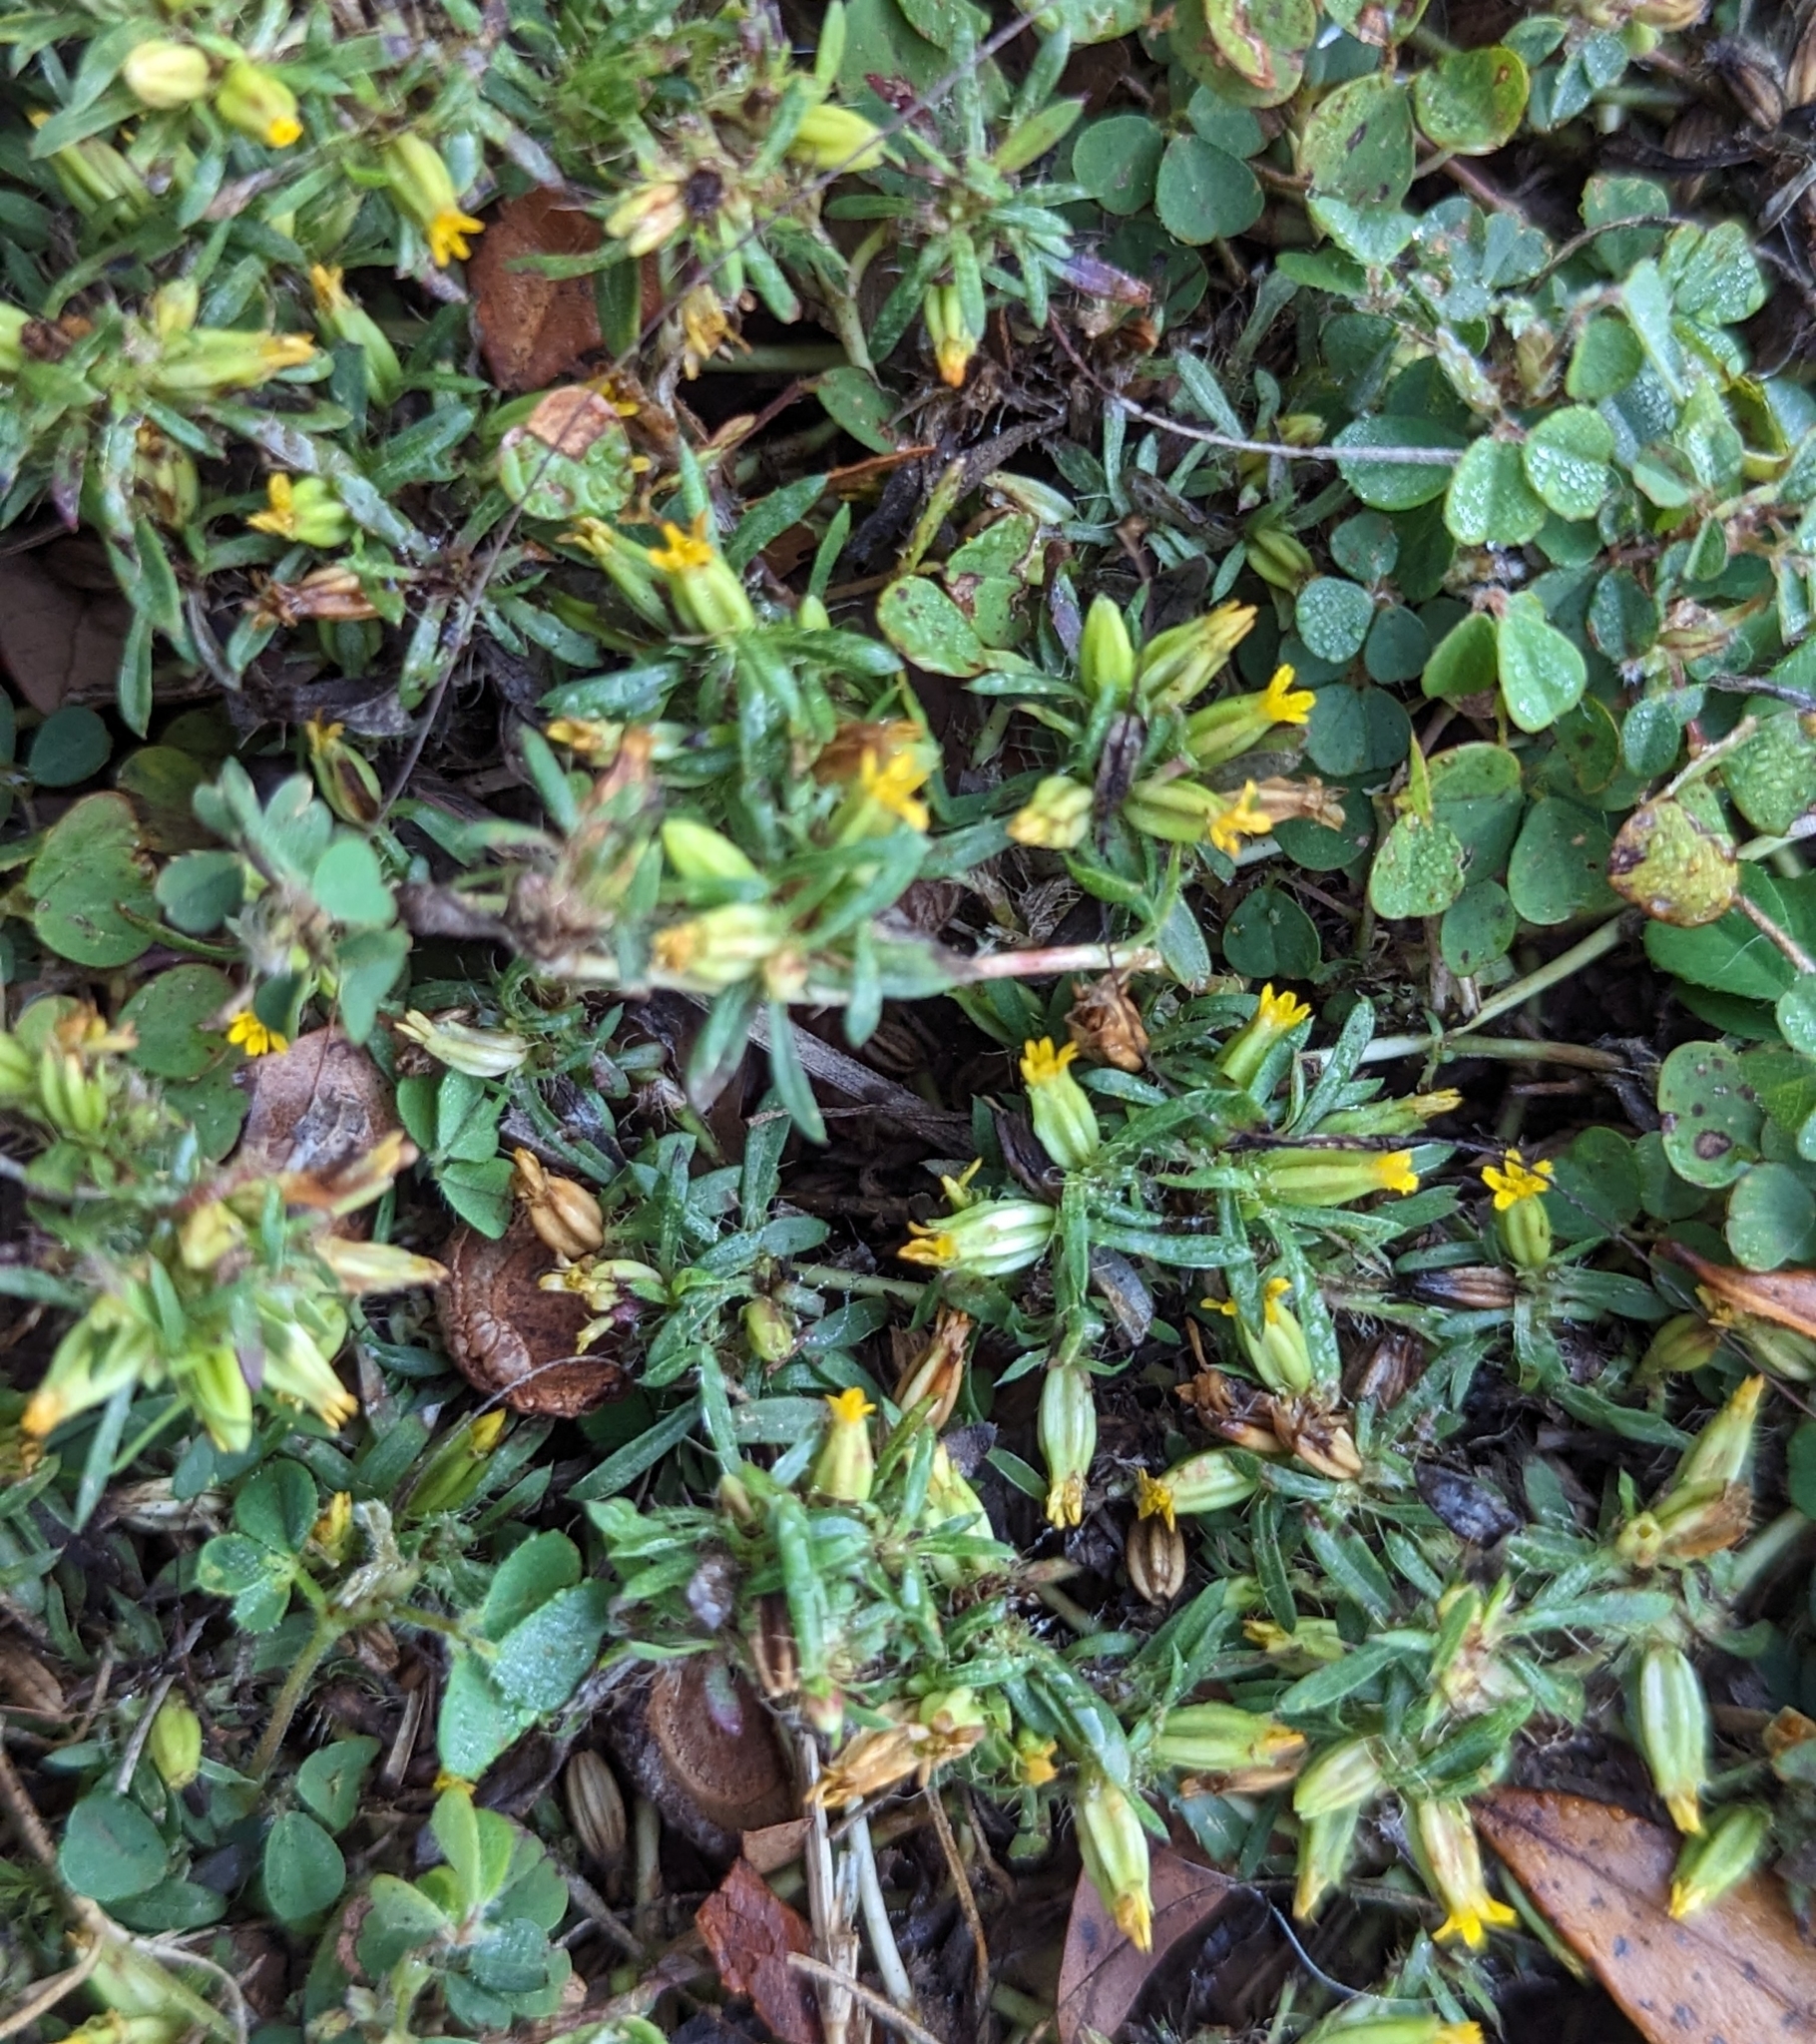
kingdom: Plantae
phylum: Tracheophyta
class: Magnoliopsida
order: Asterales
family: Asteraceae
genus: Pectis
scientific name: Pectis prostrata
